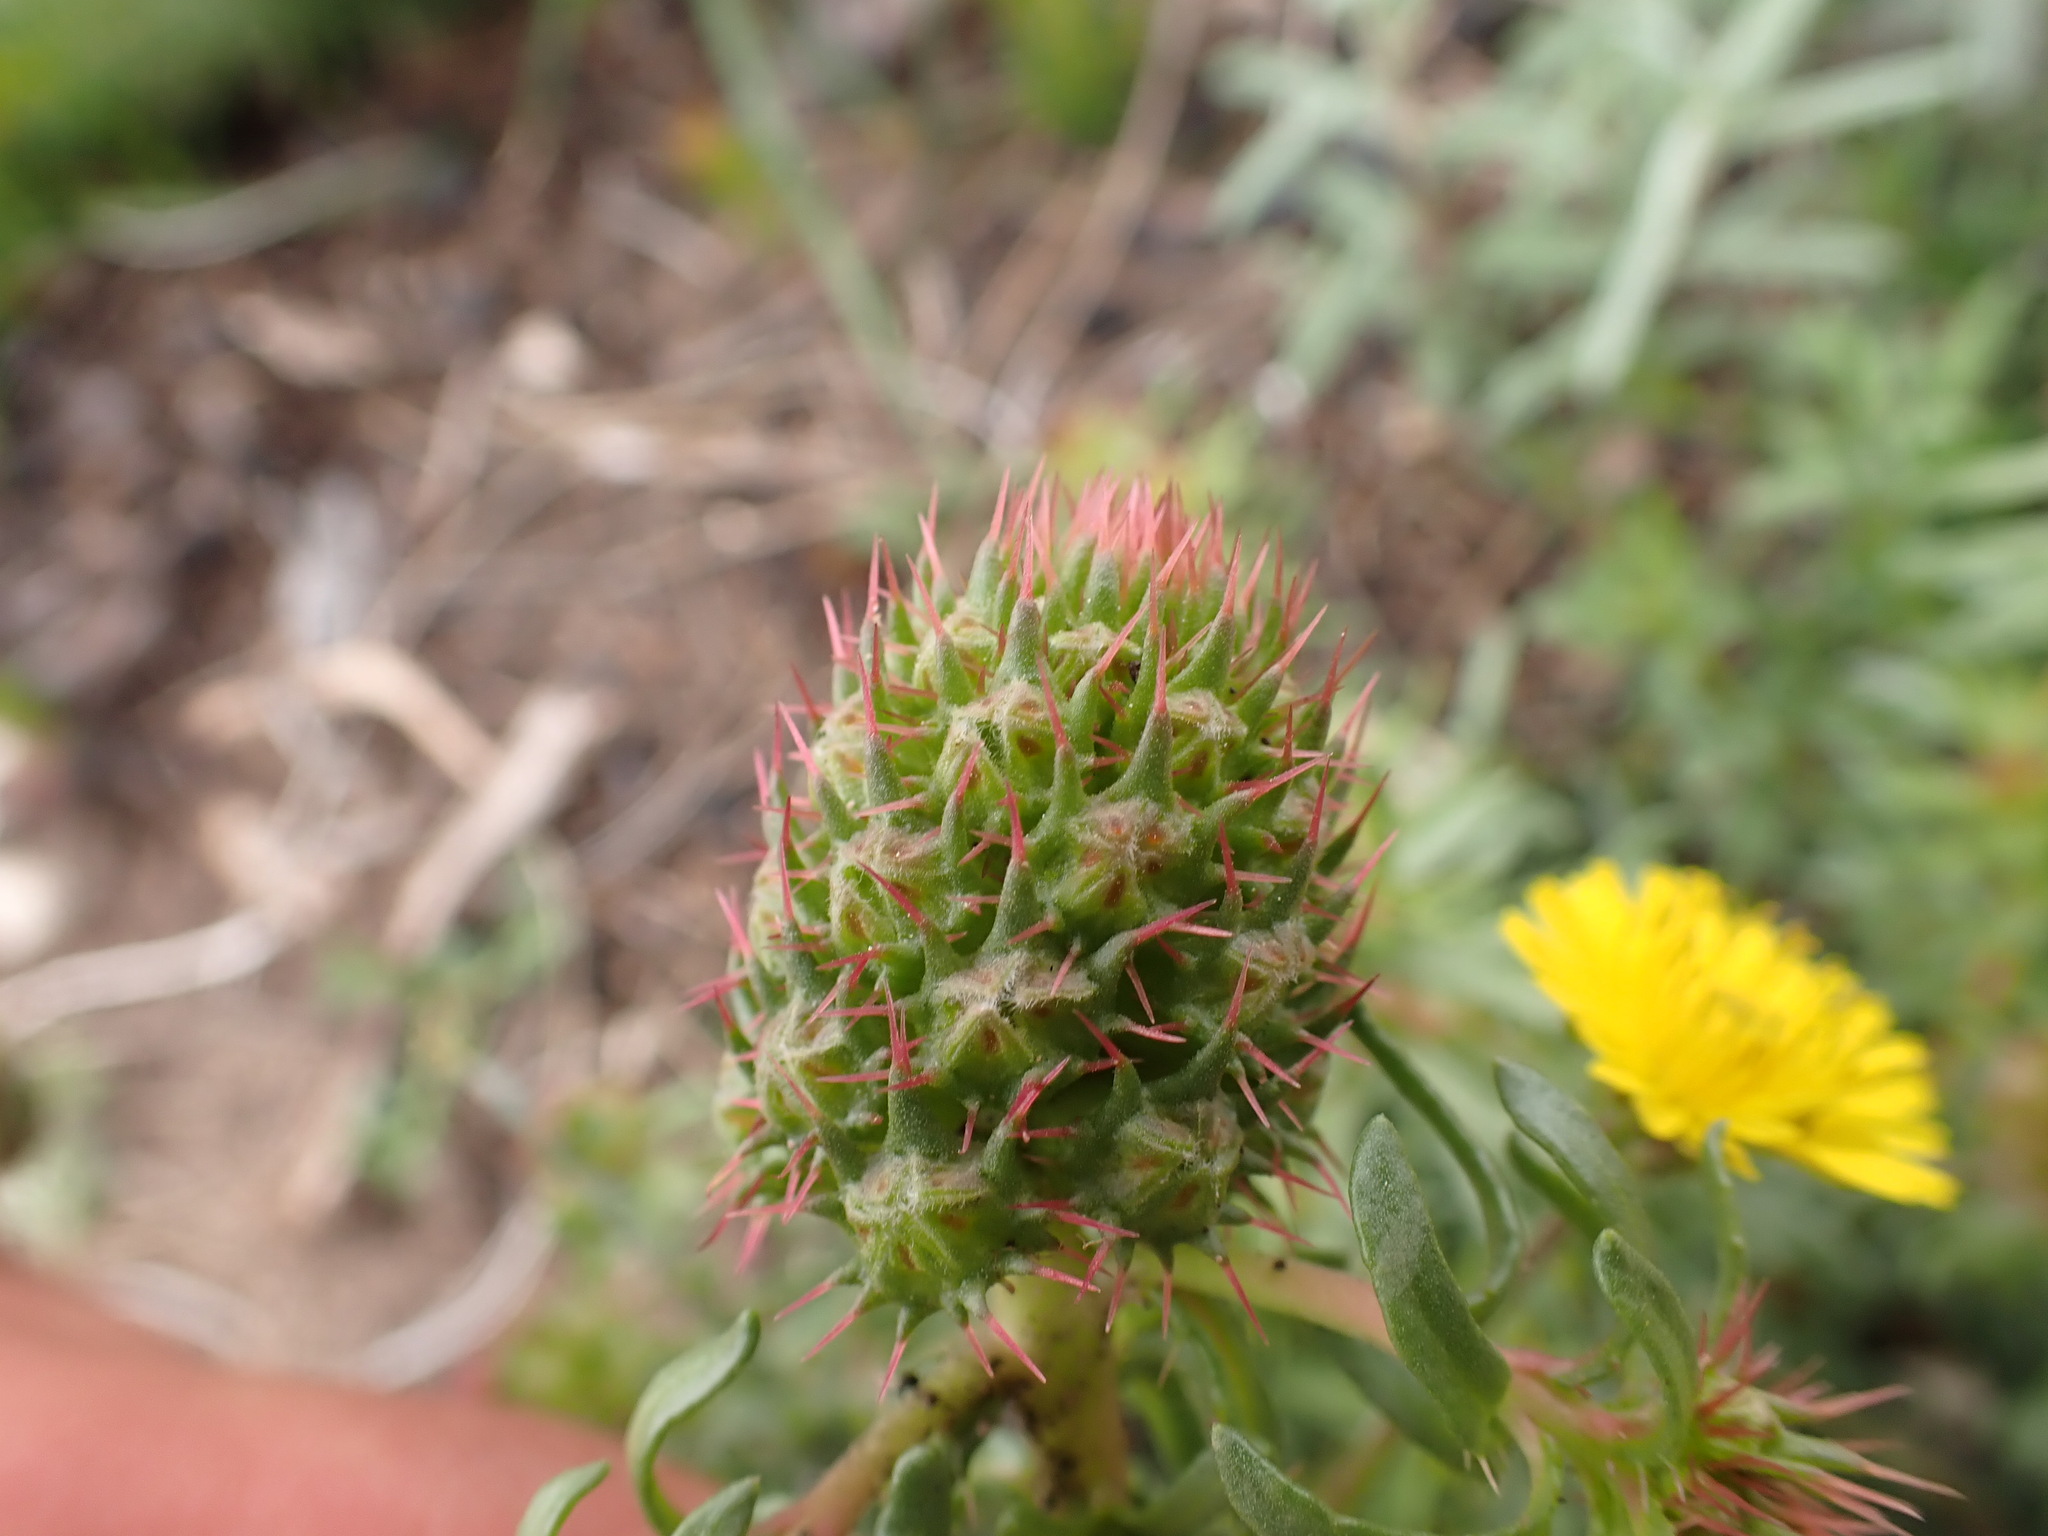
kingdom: Plantae
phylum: Tracheophyta
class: Magnoliopsida
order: Ericales
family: Primulaceae
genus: Coris
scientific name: Coris monspeliensis
